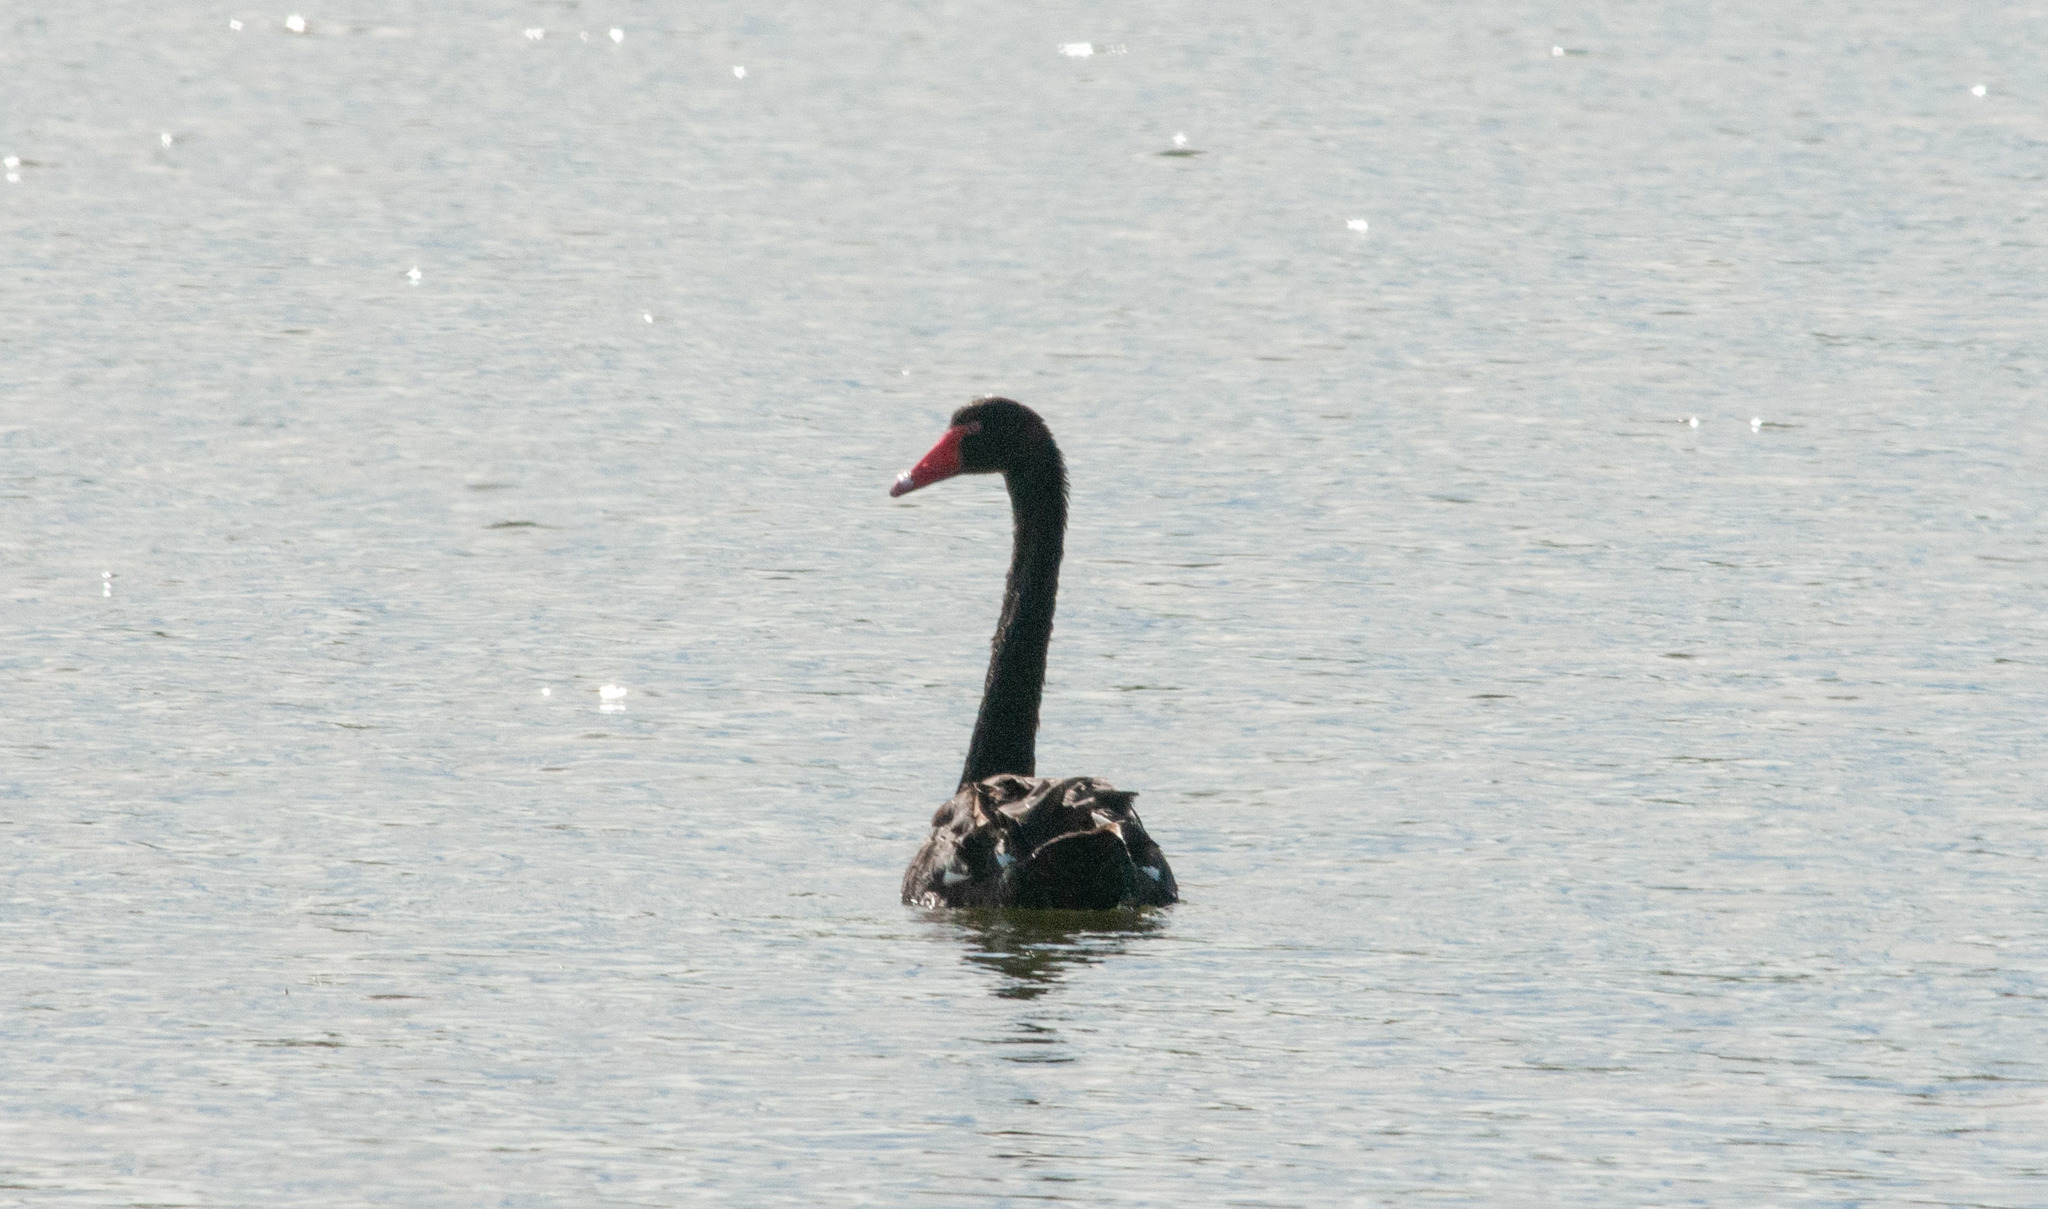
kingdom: Animalia
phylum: Chordata
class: Aves
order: Anseriformes
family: Anatidae
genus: Cygnus
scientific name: Cygnus atratus
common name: Black swan
